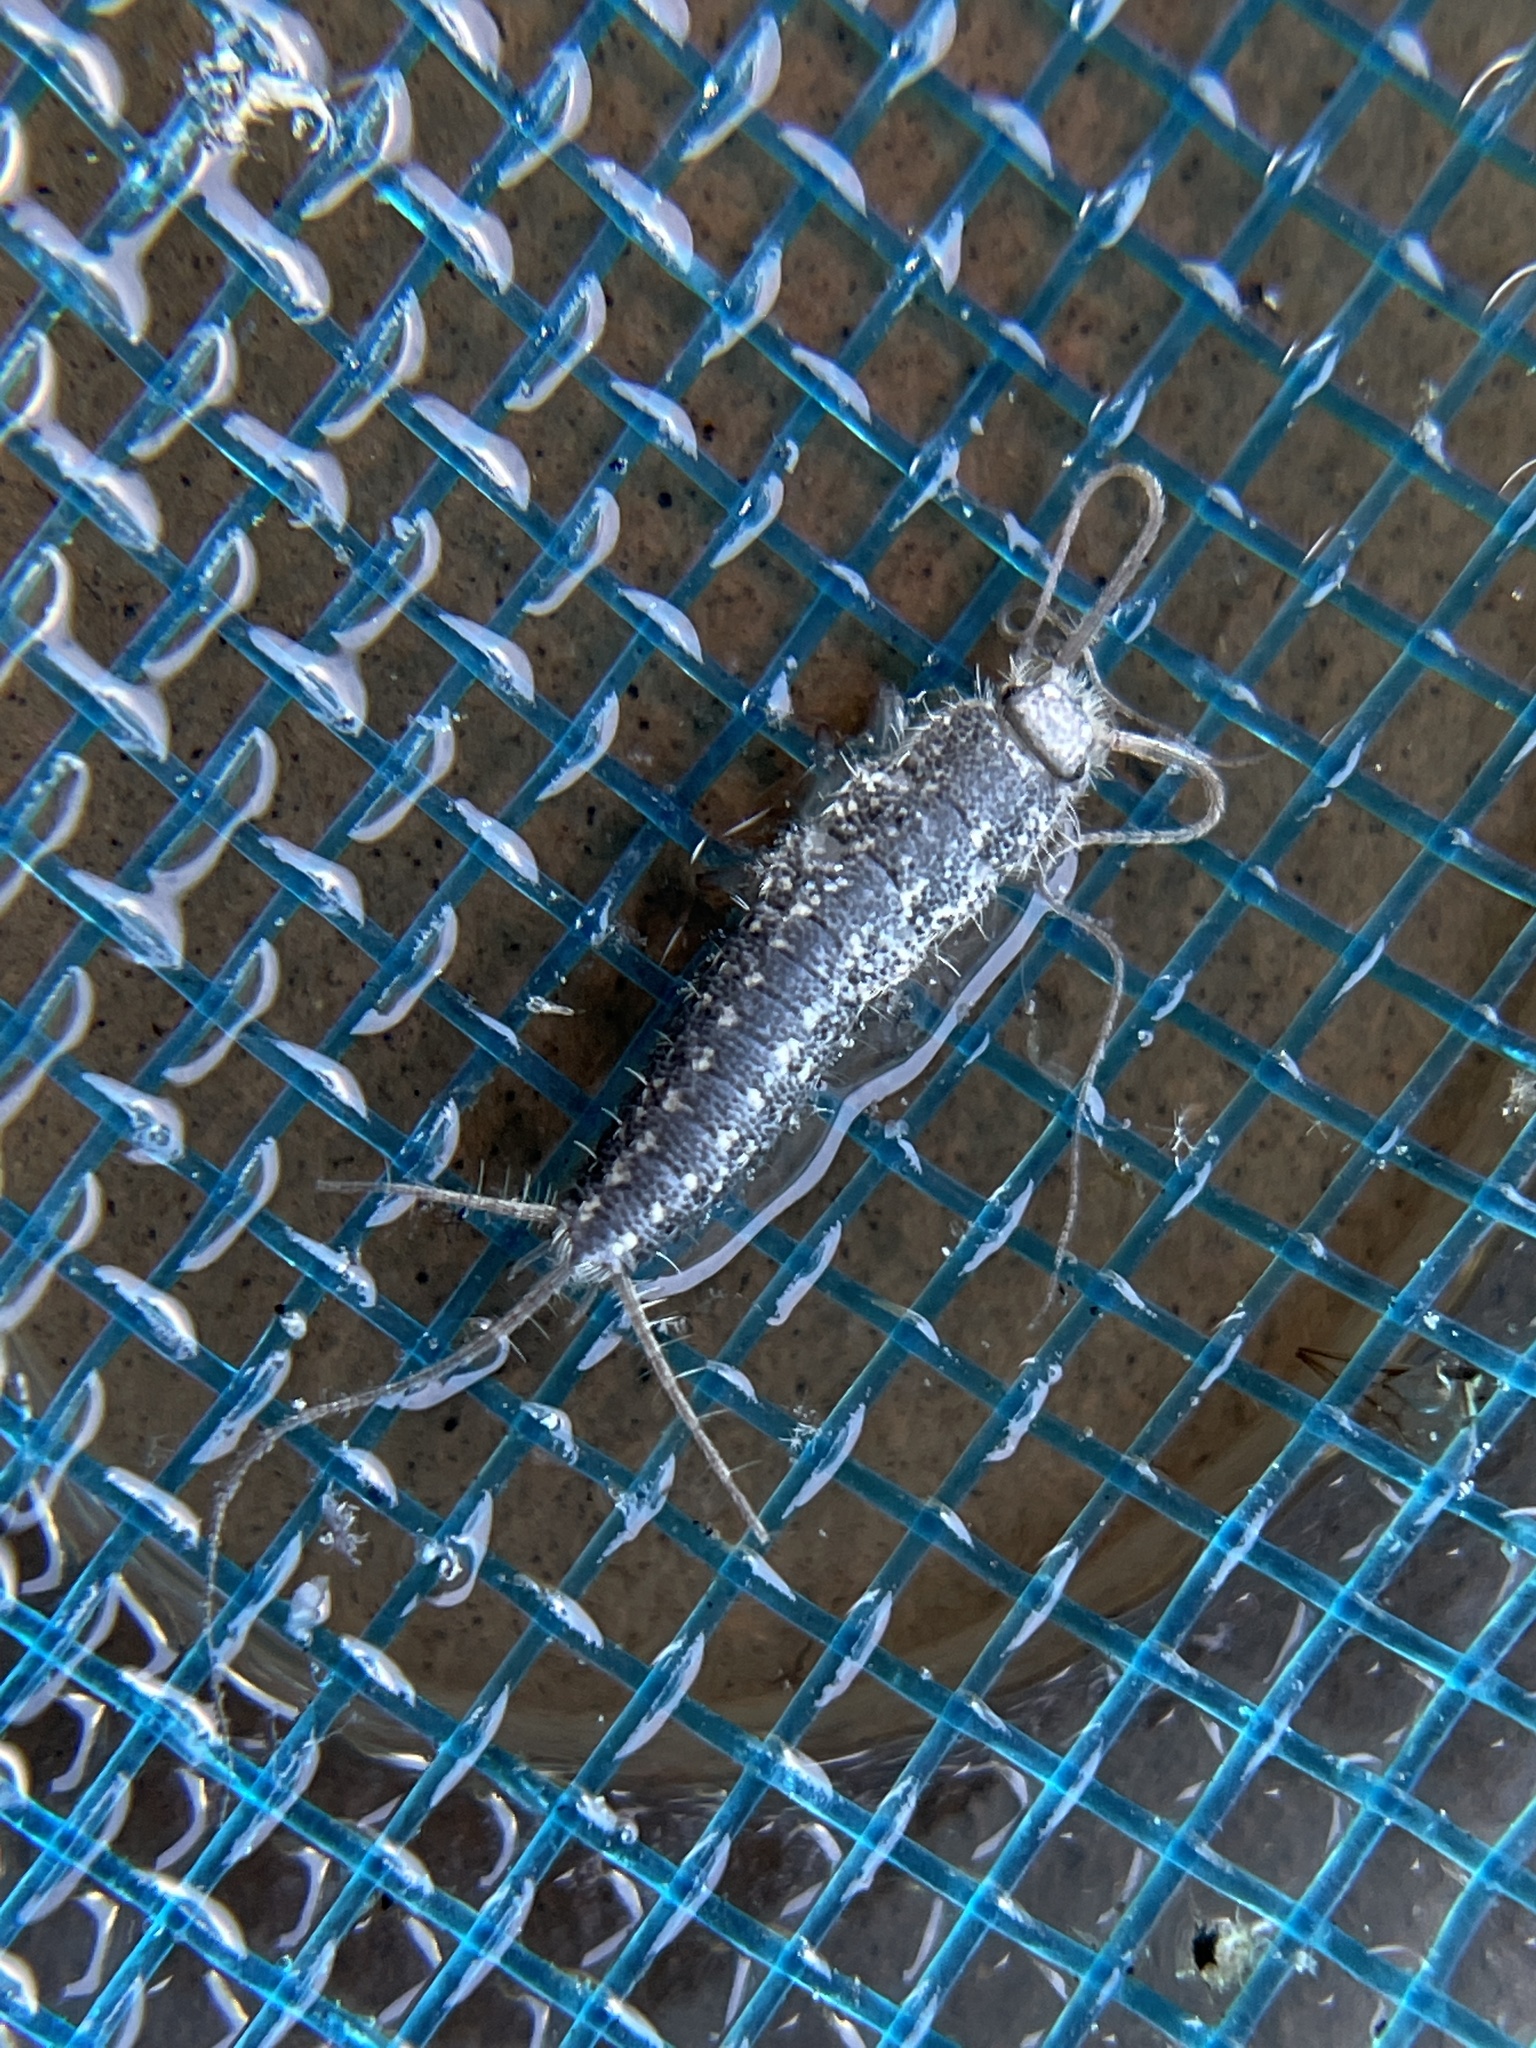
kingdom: Animalia
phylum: Arthropoda
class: Insecta
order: Zygentoma
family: Lepismatidae
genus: Ctenolepisma
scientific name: Ctenolepisma lineata
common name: Four-lined silverfish
